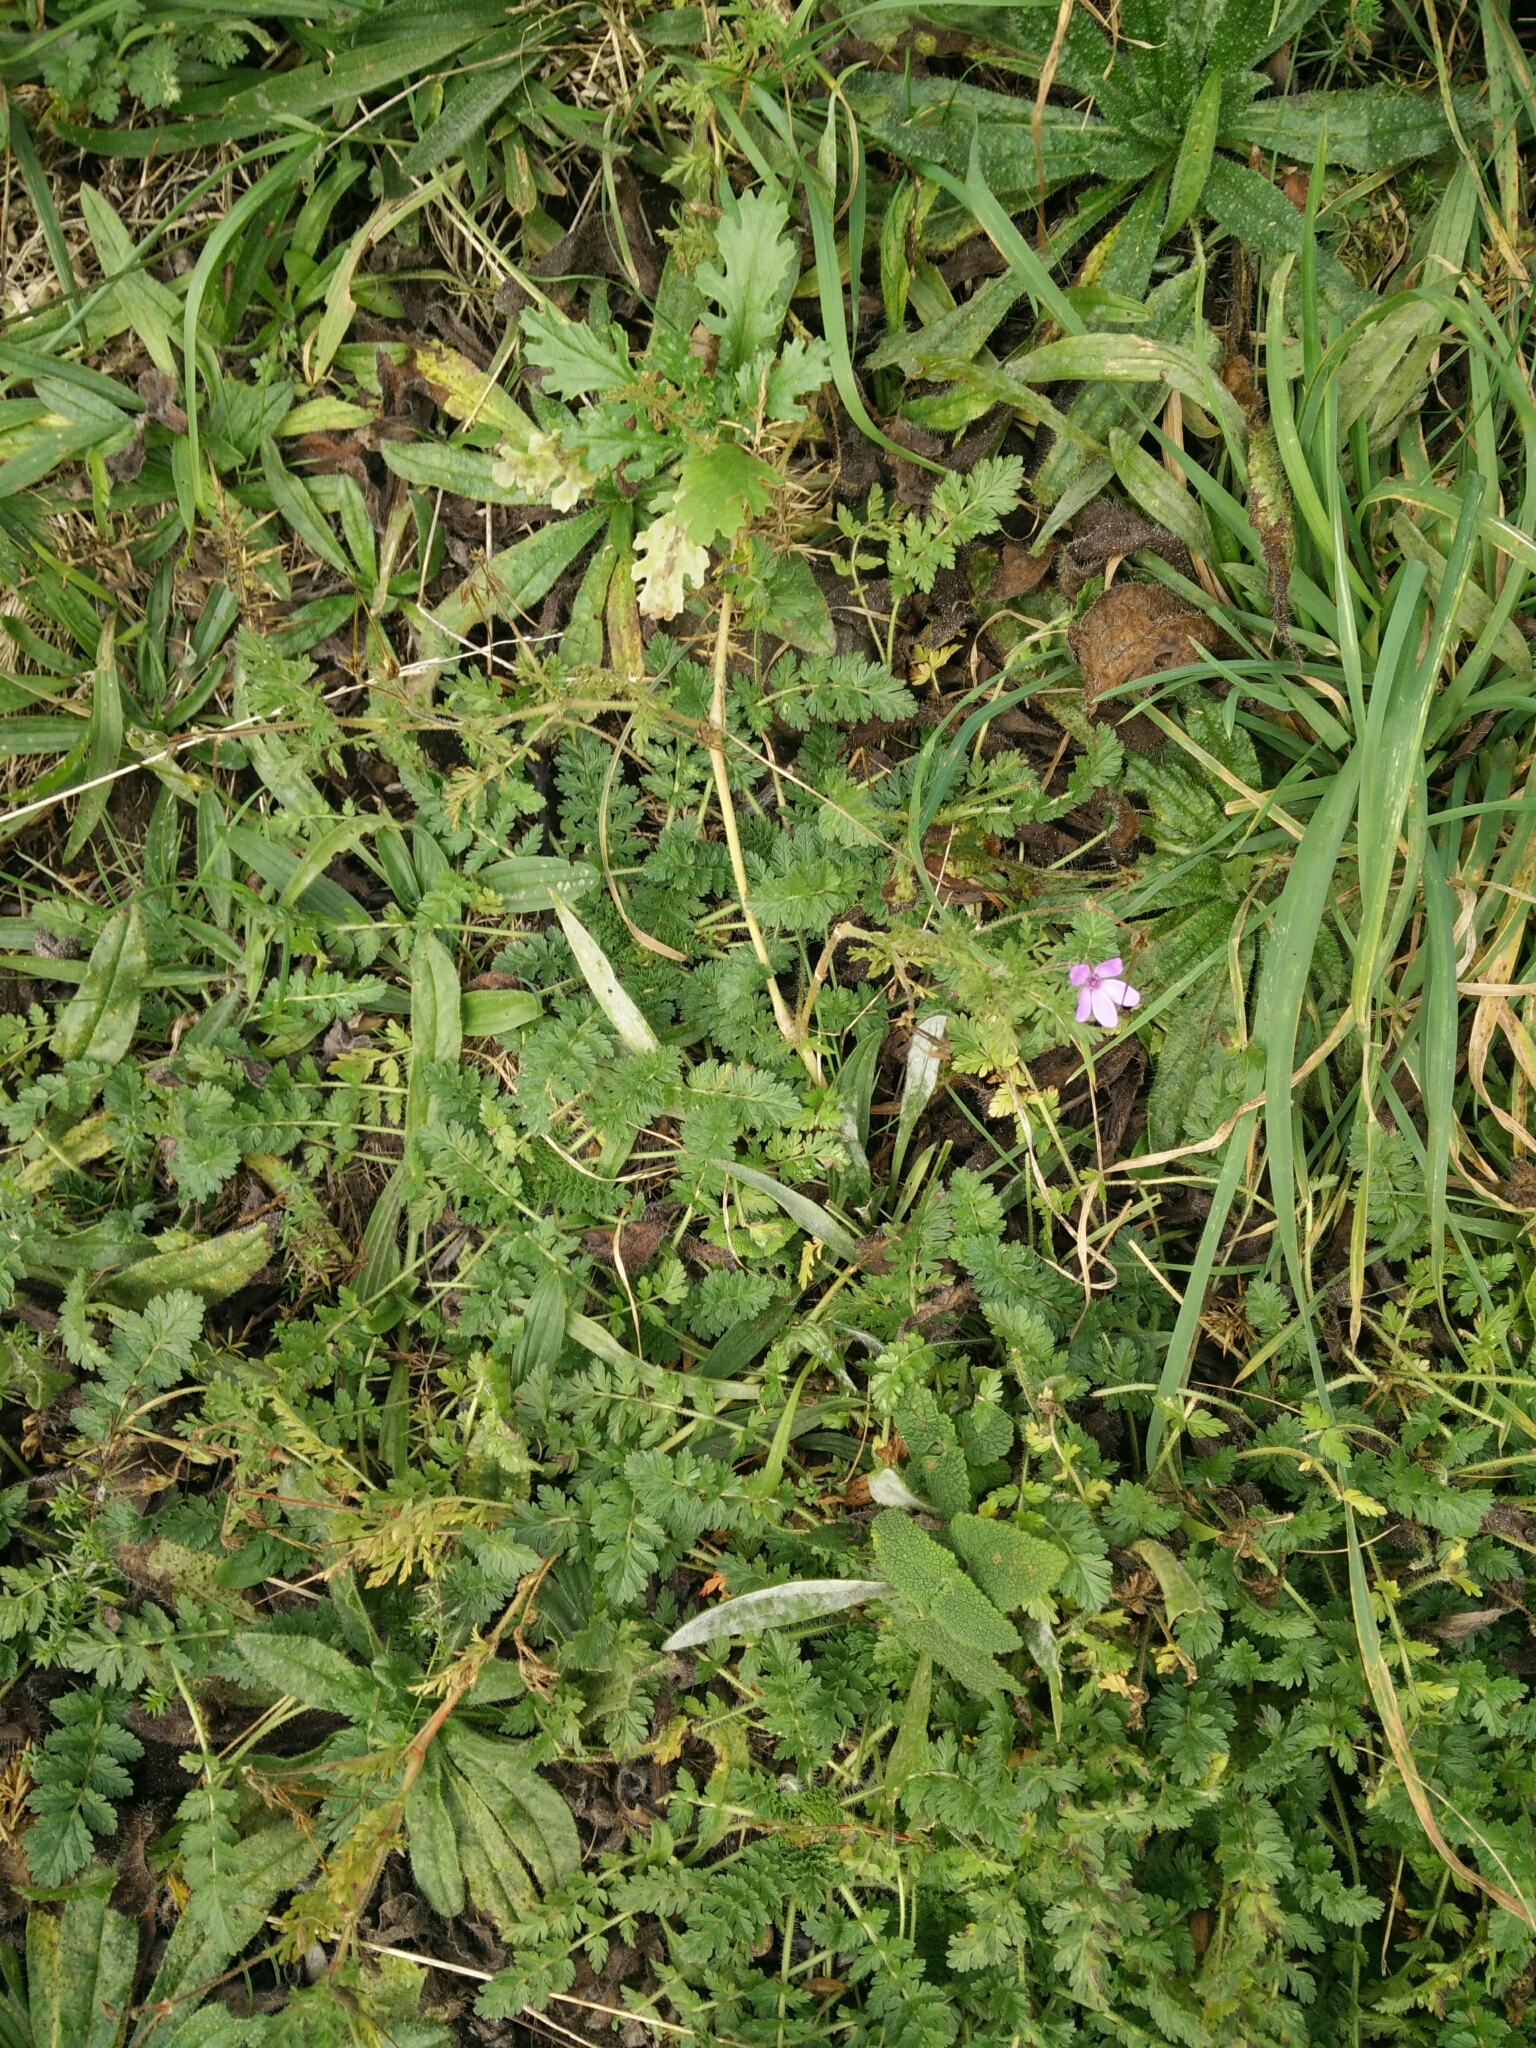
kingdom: Plantae
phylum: Tracheophyta
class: Magnoliopsida
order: Geraniales
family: Geraniaceae
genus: Erodium
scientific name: Erodium cicutarium
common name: Common stork's-bill
